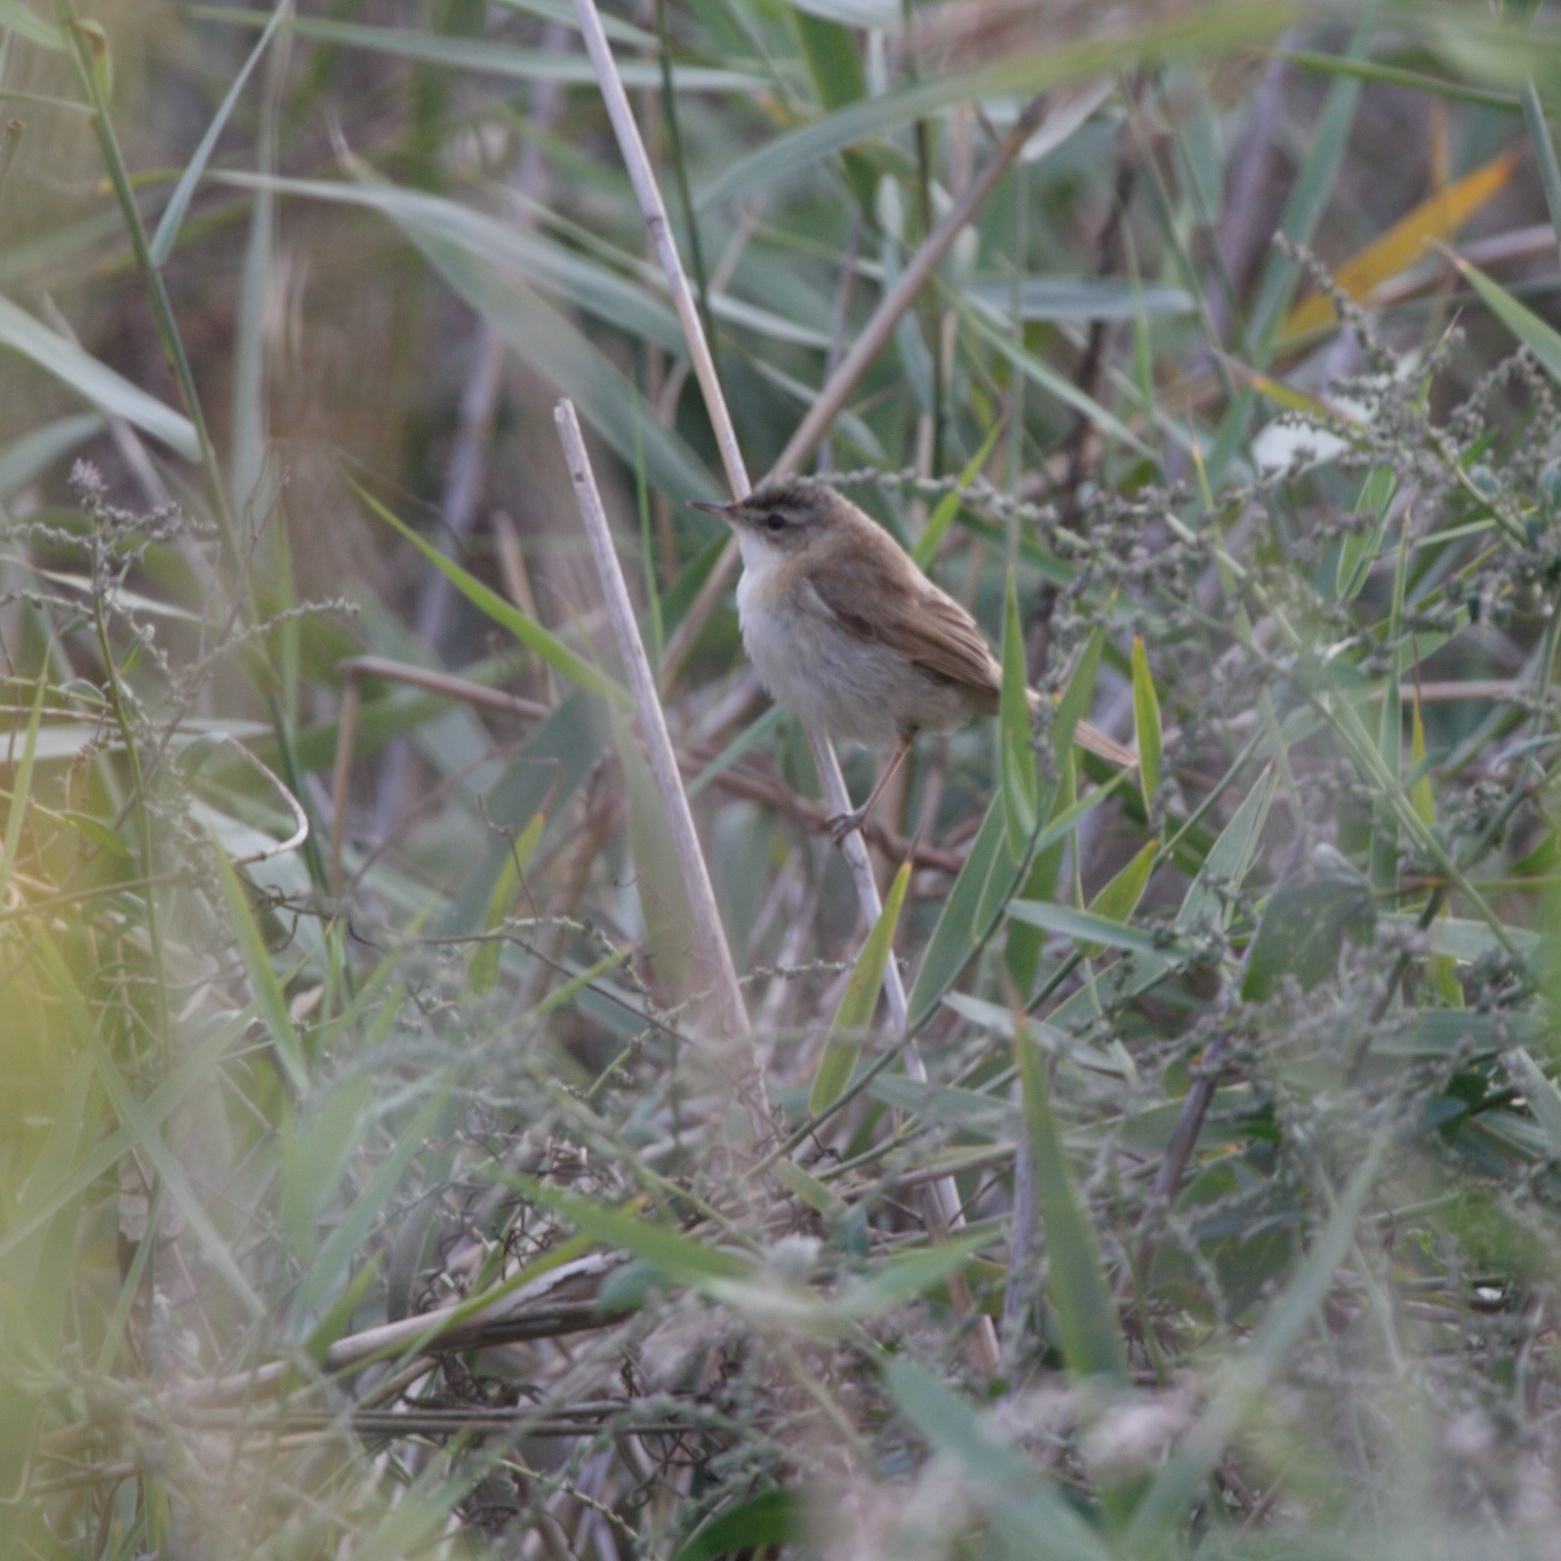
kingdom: Animalia
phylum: Chordata
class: Aves
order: Passeriformes
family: Acrocephalidae
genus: Acrocephalus
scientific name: Acrocephalus agricola
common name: Paddyfield warbler
